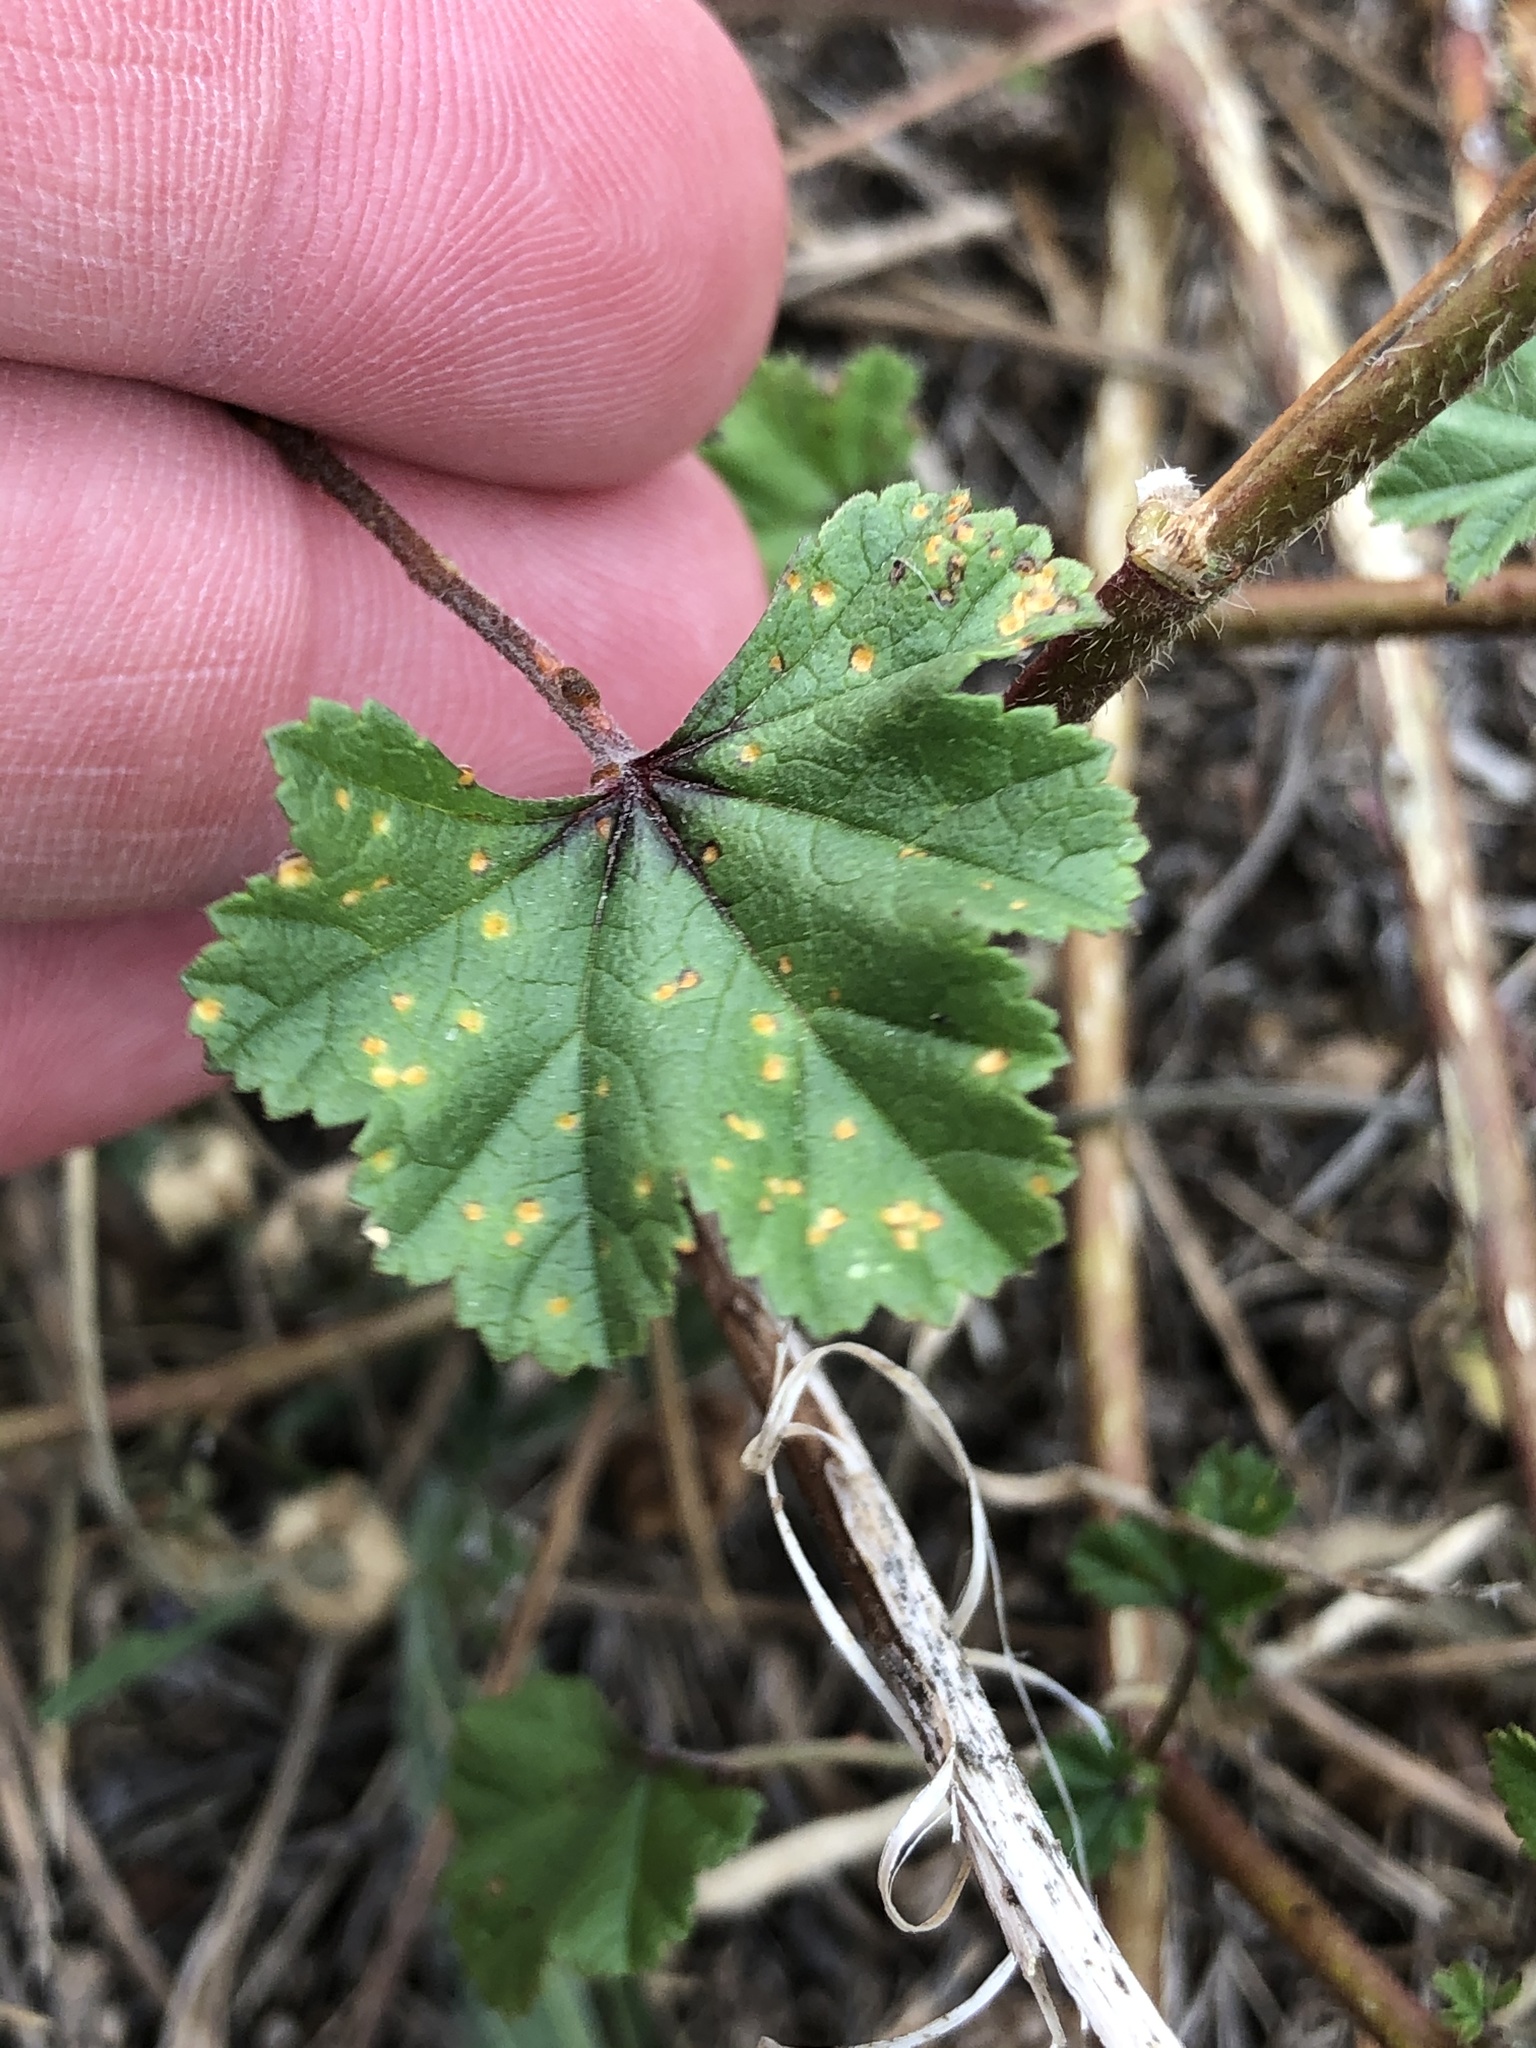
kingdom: Fungi
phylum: Basidiomycota
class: Pucciniomycetes
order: Pucciniales
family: Pucciniaceae
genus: Puccinia
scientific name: Puccinia malvacearum
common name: Hollyhock rust
